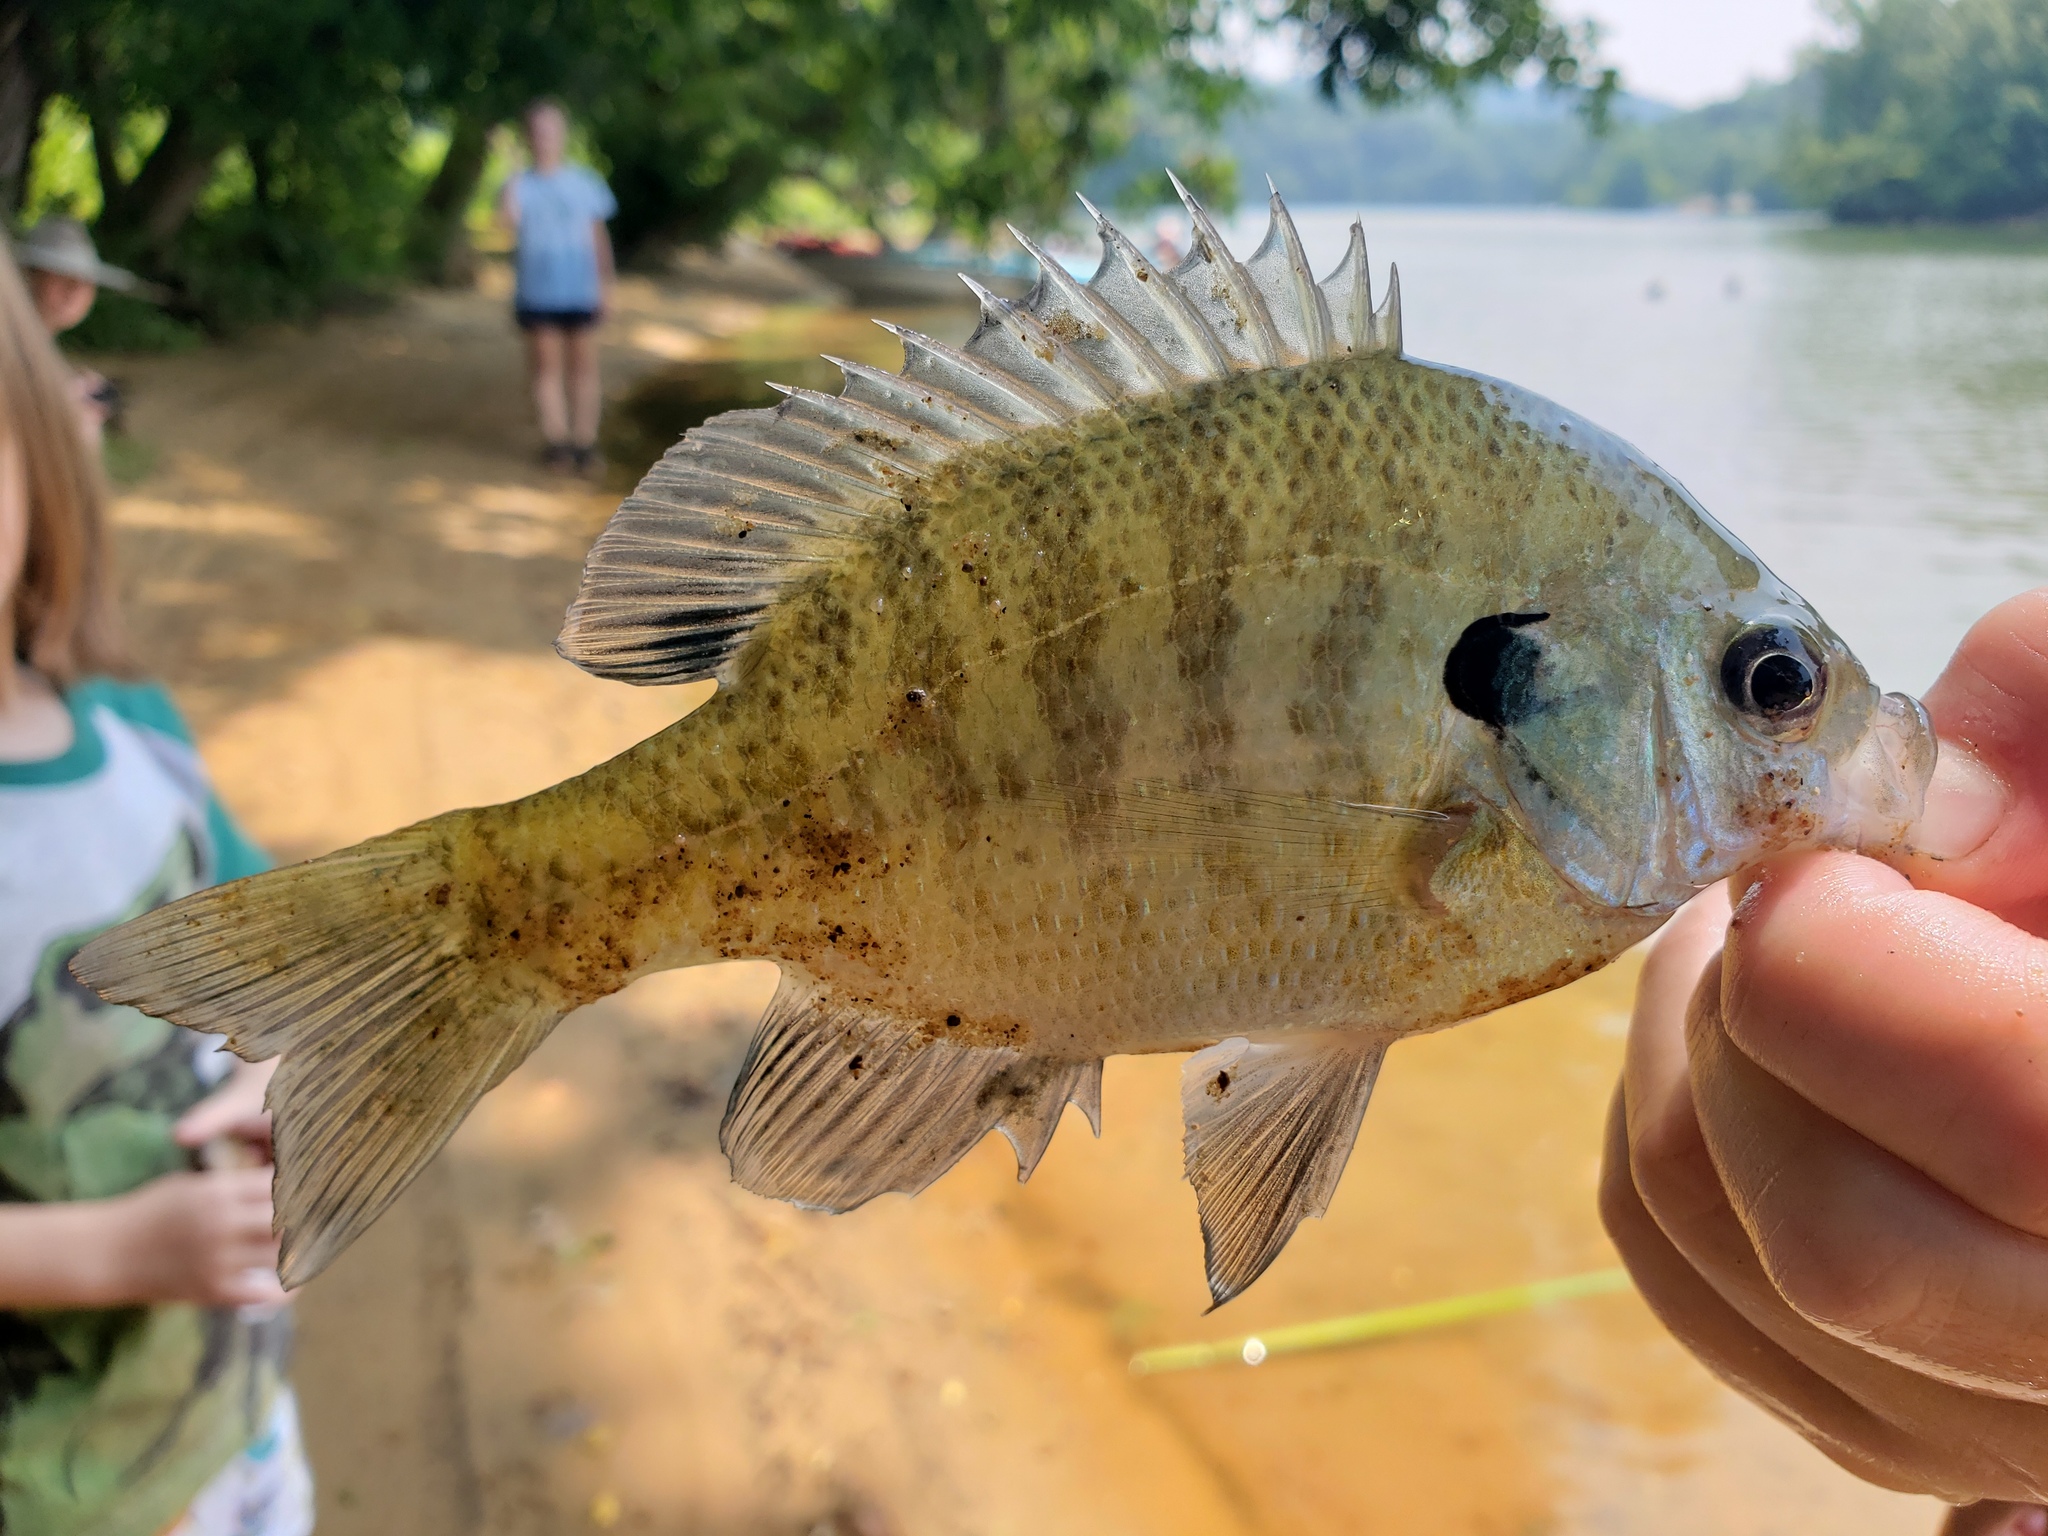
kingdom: Animalia
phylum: Chordata
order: Perciformes
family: Centrarchidae
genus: Lepomis
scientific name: Lepomis macrochirus
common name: Bluegill
